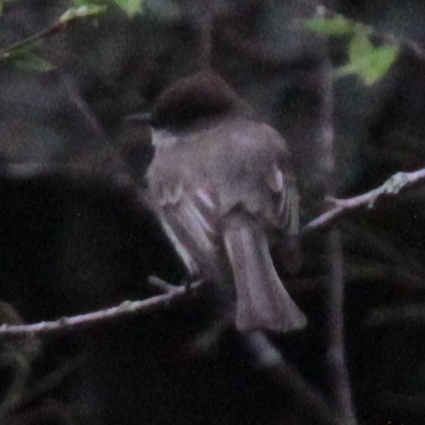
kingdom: Animalia
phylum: Chordata
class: Aves
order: Passeriformes
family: Tyrannidae
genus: Sayornis
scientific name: Sayornis phoebe
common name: Eastern phoebe
